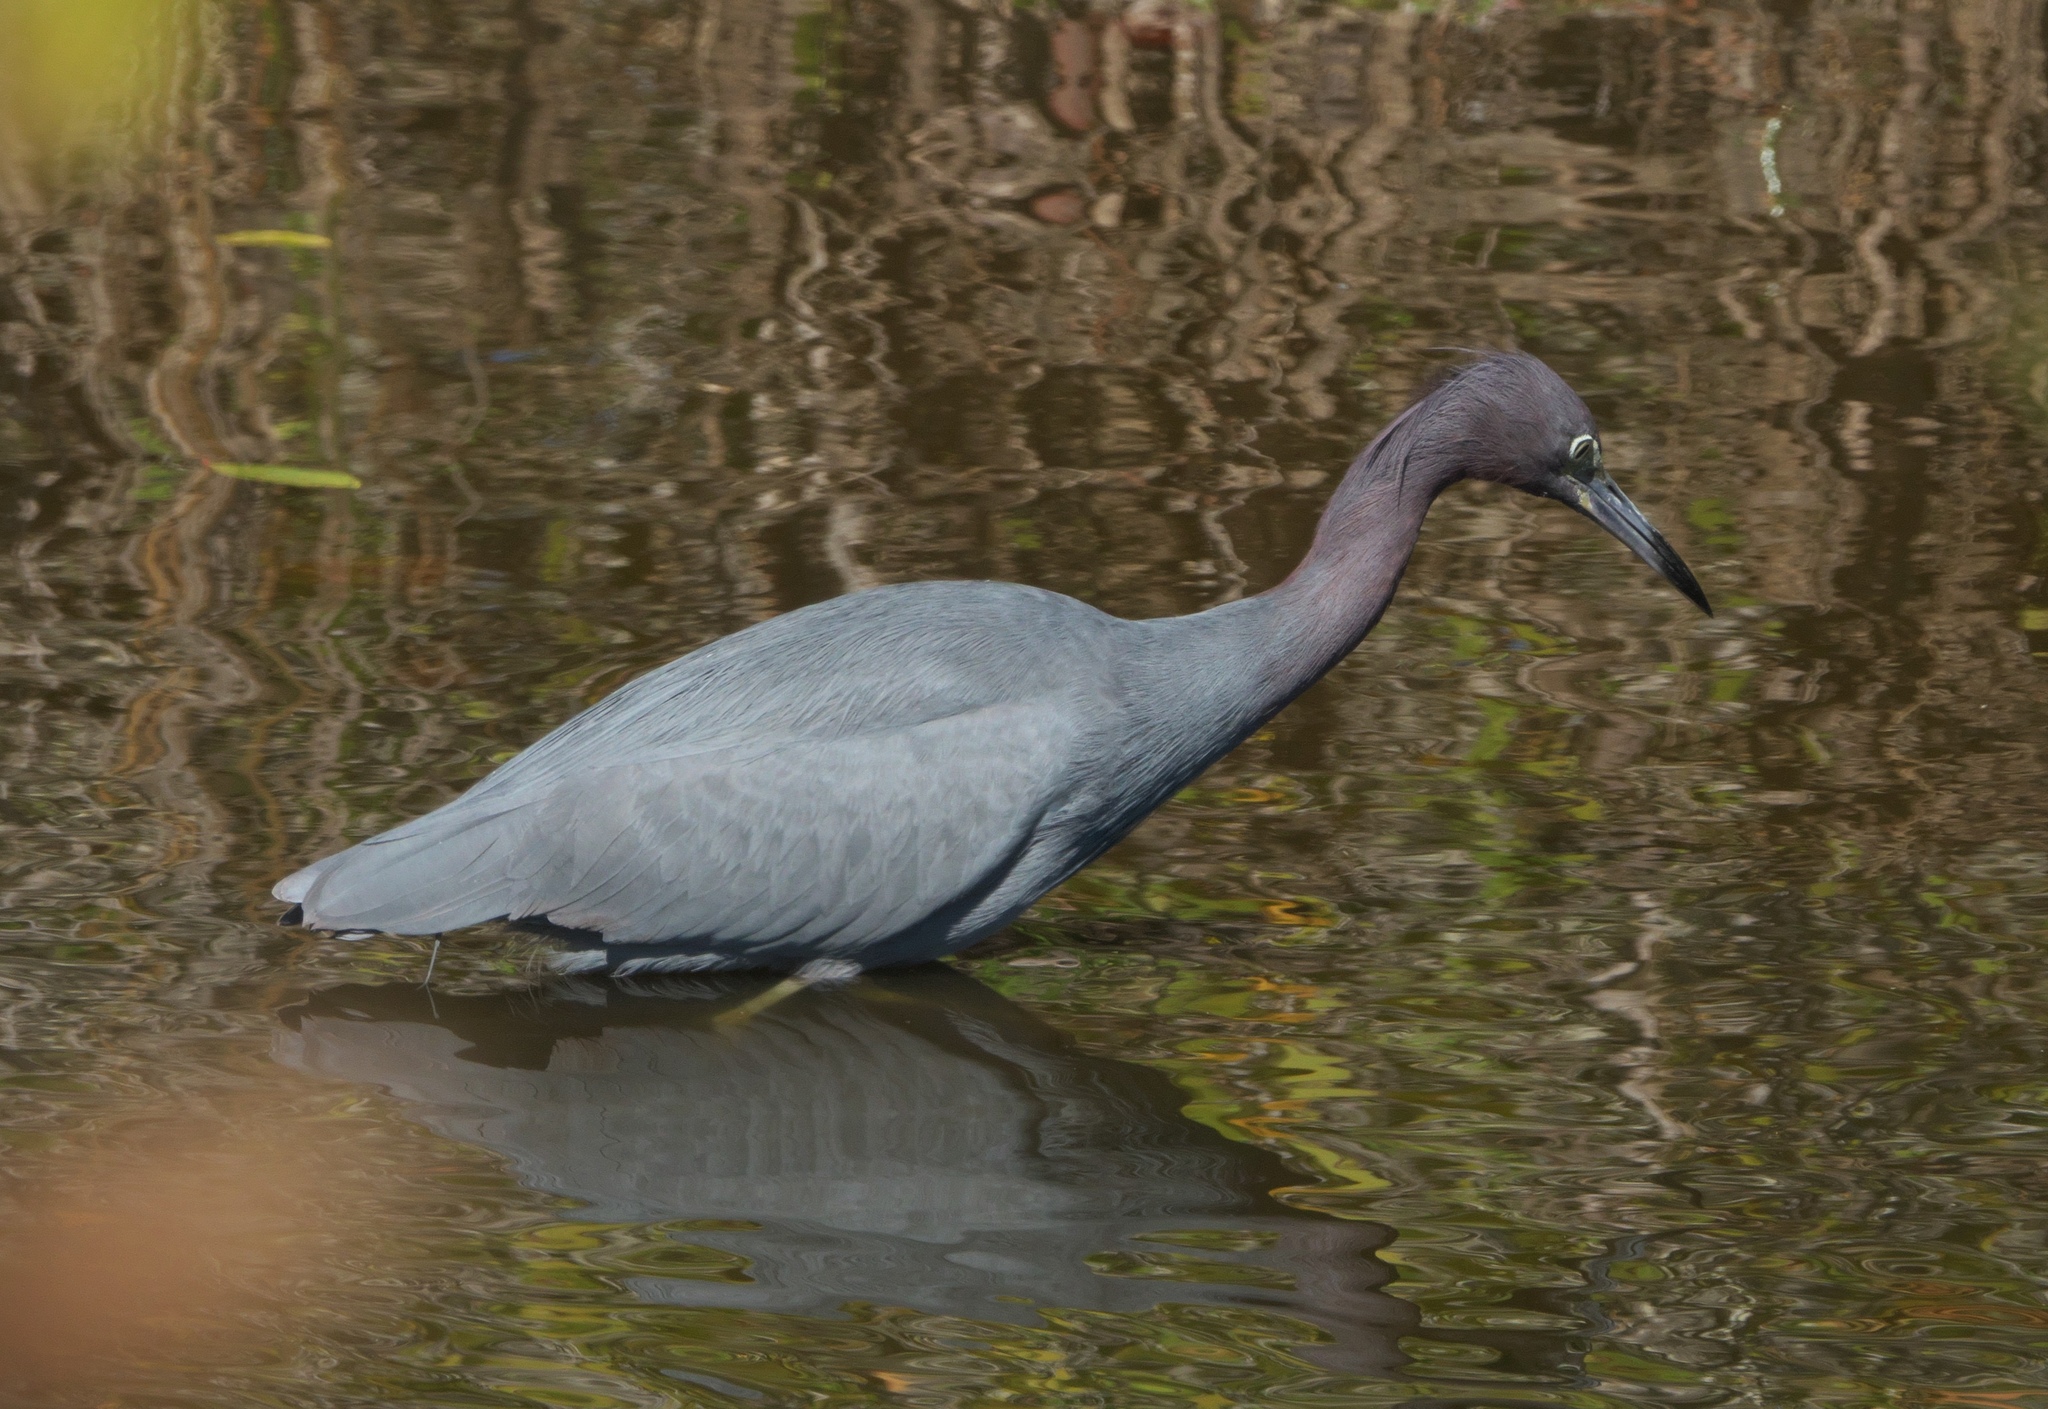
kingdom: Animalia
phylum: Chordata
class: Aves
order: Pelecaniformes
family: Ardeidae
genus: Egretta
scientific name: Egretta caerulea
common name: Little blue heron
